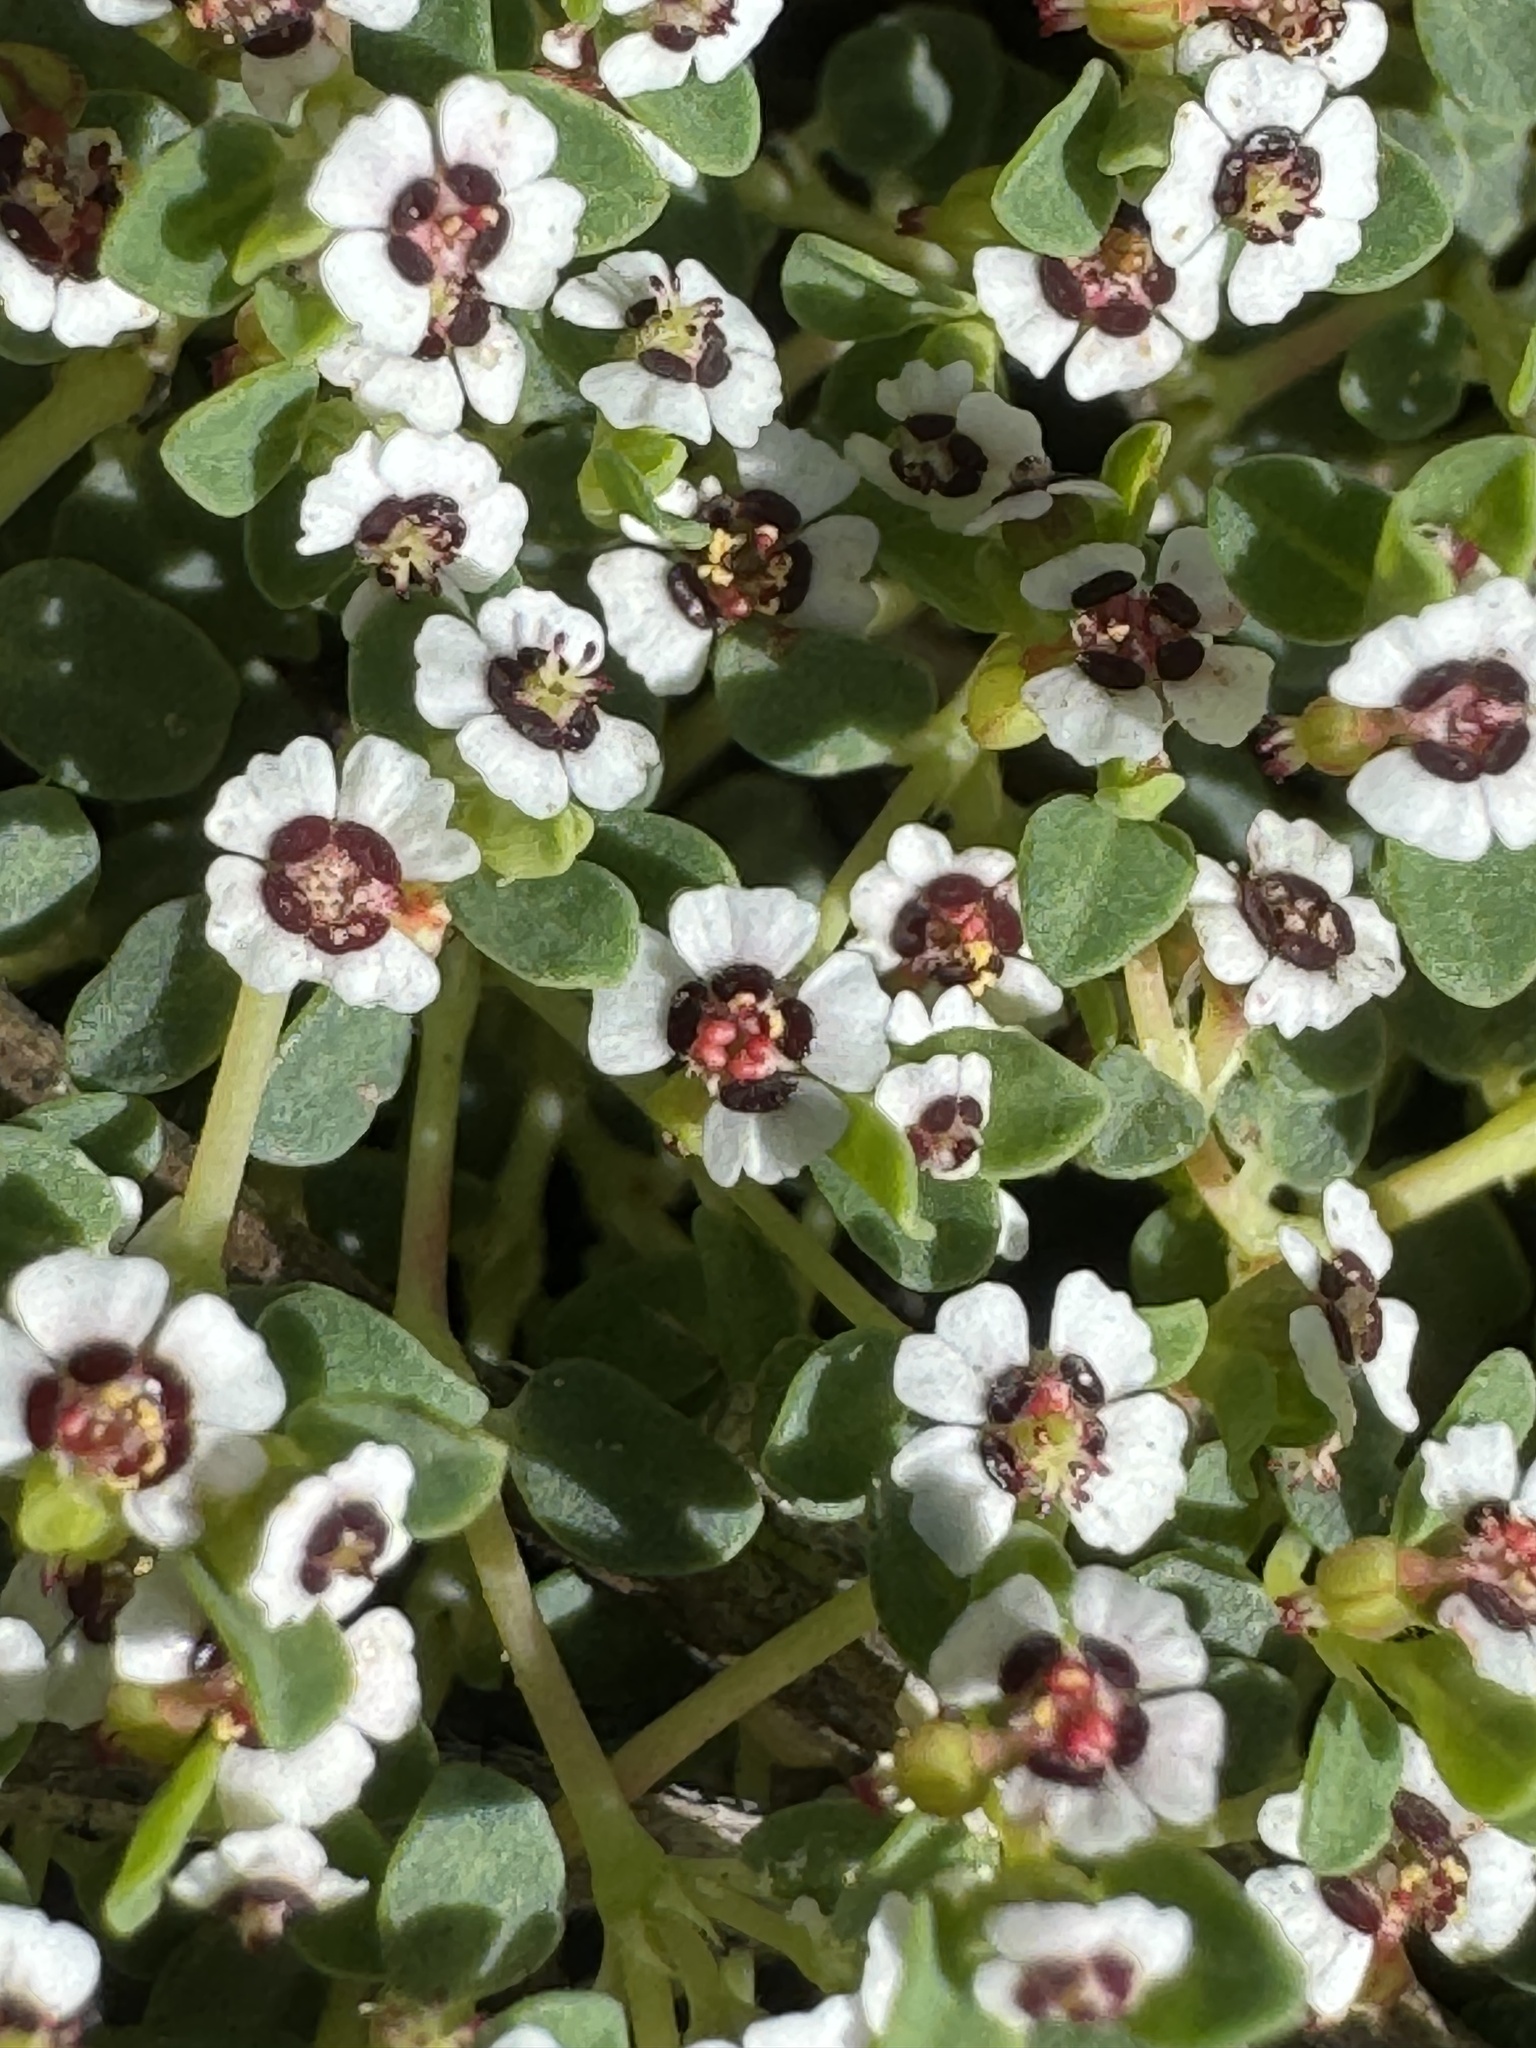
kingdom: Plantae
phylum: Tracheophyta
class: Magnoliopsida
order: Malpighiales
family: Euphorbiaceae
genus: Euphorbia
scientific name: Euphorbia polycarpa
